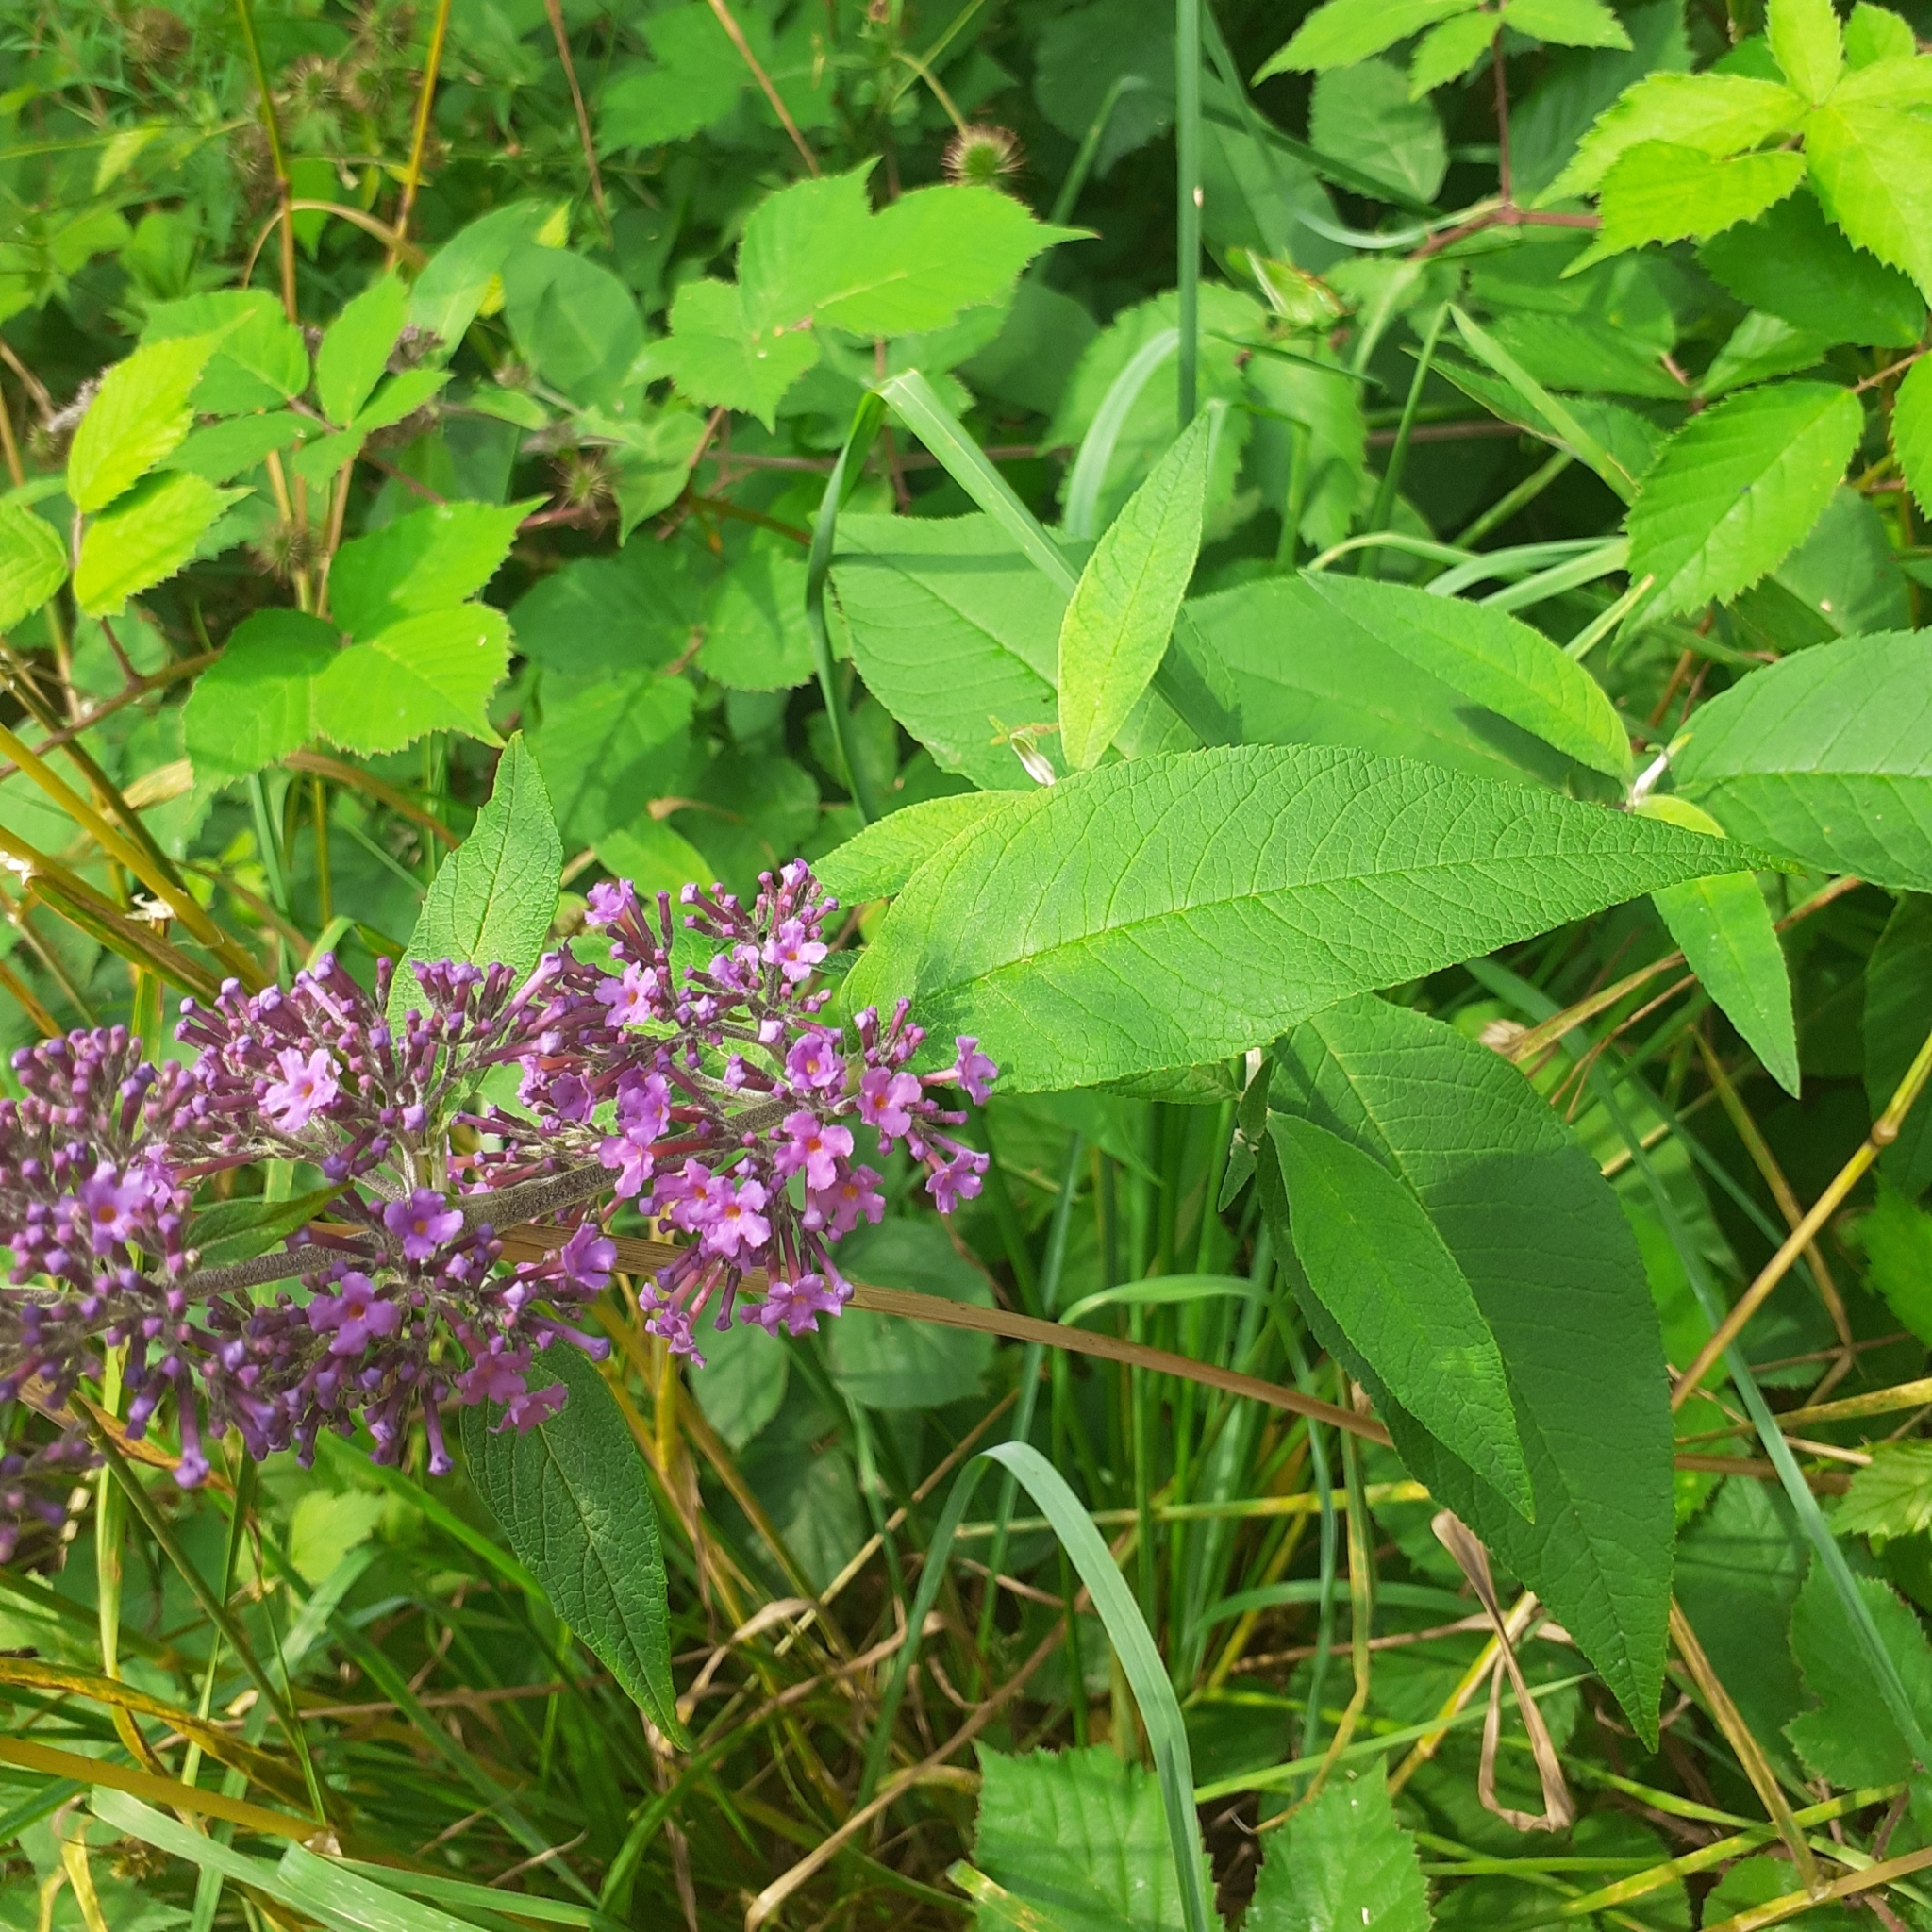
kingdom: Plantae
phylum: Tracheophyta
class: Magnoliopsida
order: Lamiales
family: Scrophulariaceae
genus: Buddleja
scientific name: Buddleja davidii
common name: Butterfly-bush
